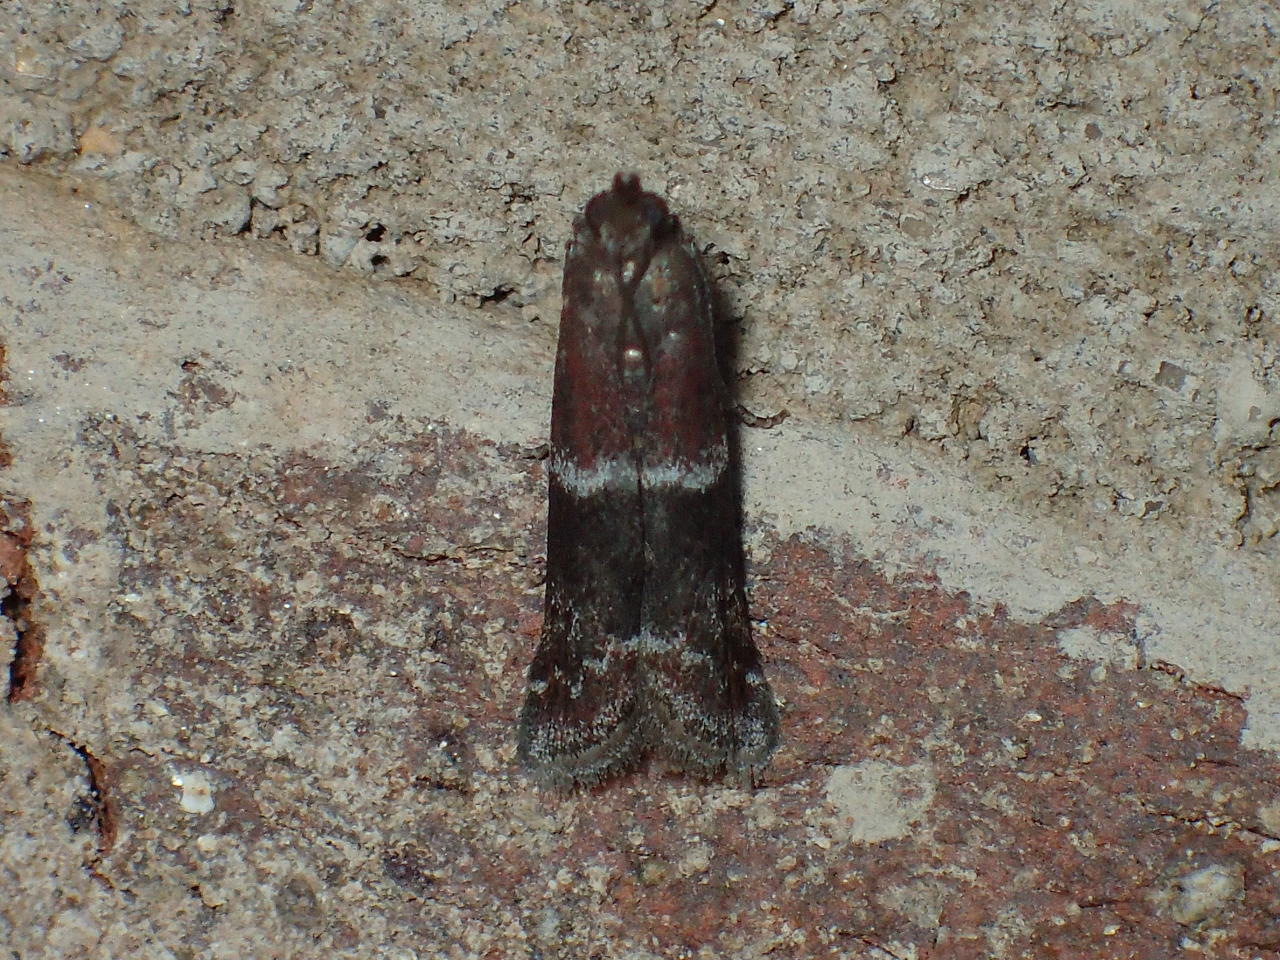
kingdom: Animalia
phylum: Arthropoda
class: Insecta
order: Lepidoptera
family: Pyralidae
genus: Moodna
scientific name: Moodna ostrinella
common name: Darker moodna moth
